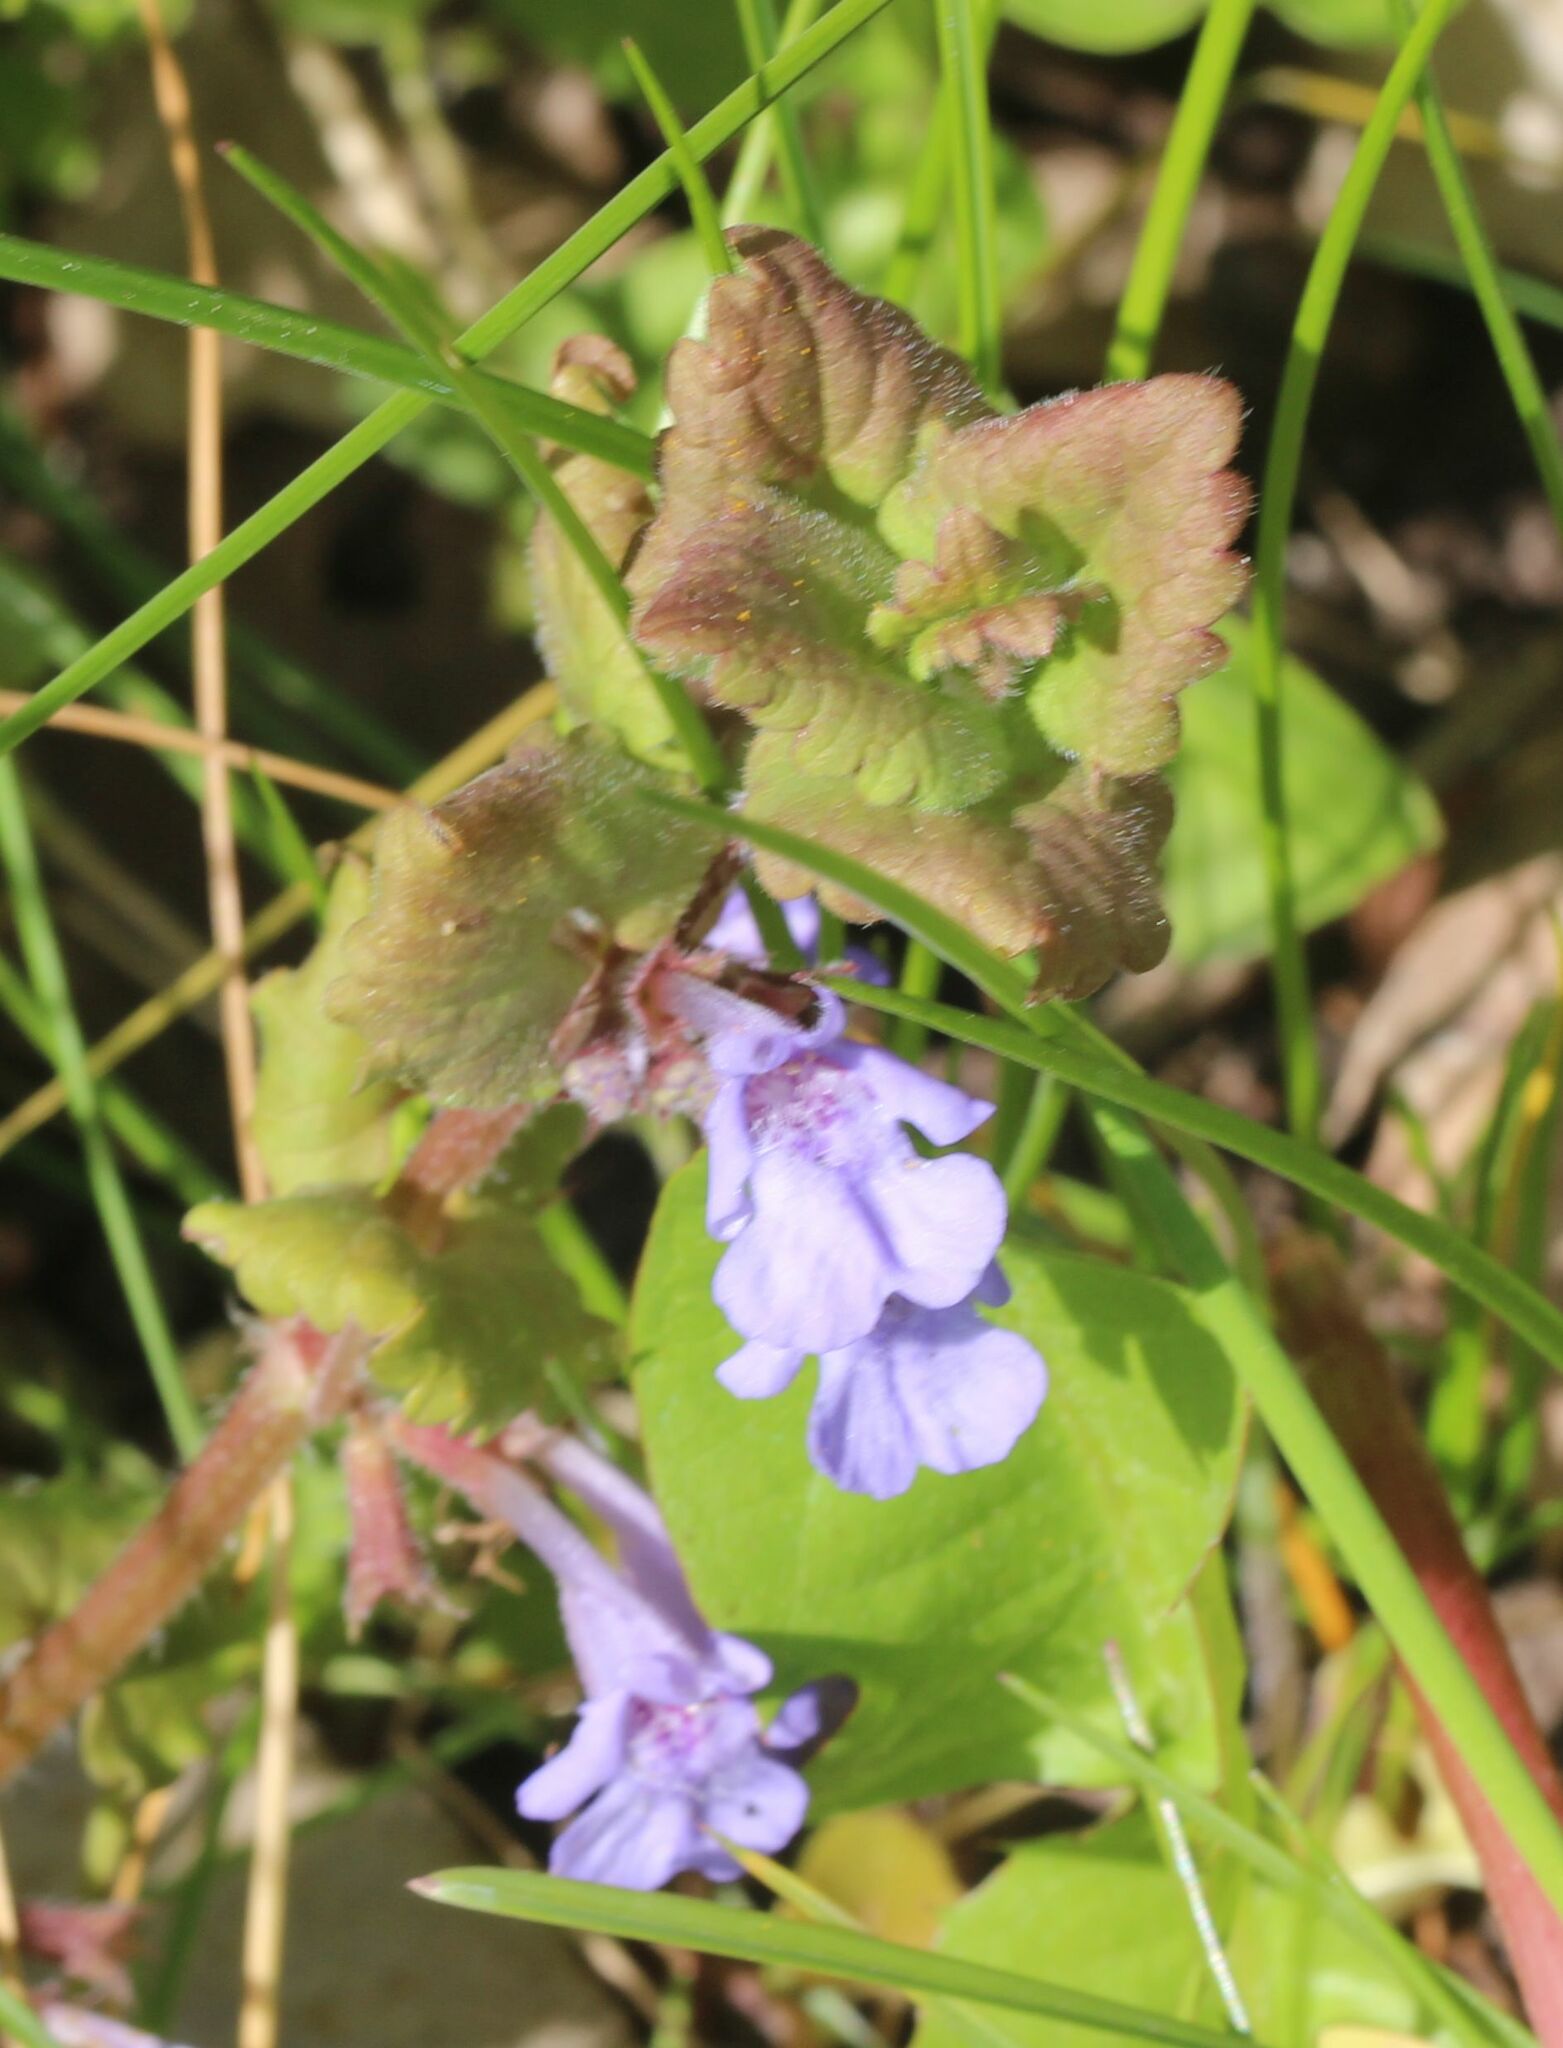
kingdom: Plantae
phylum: Tracheophyta
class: Magnoliopsida
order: Lamiales
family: Lamiaceae
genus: Glechoma
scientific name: Glechoma hederacea
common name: Ground ivy
